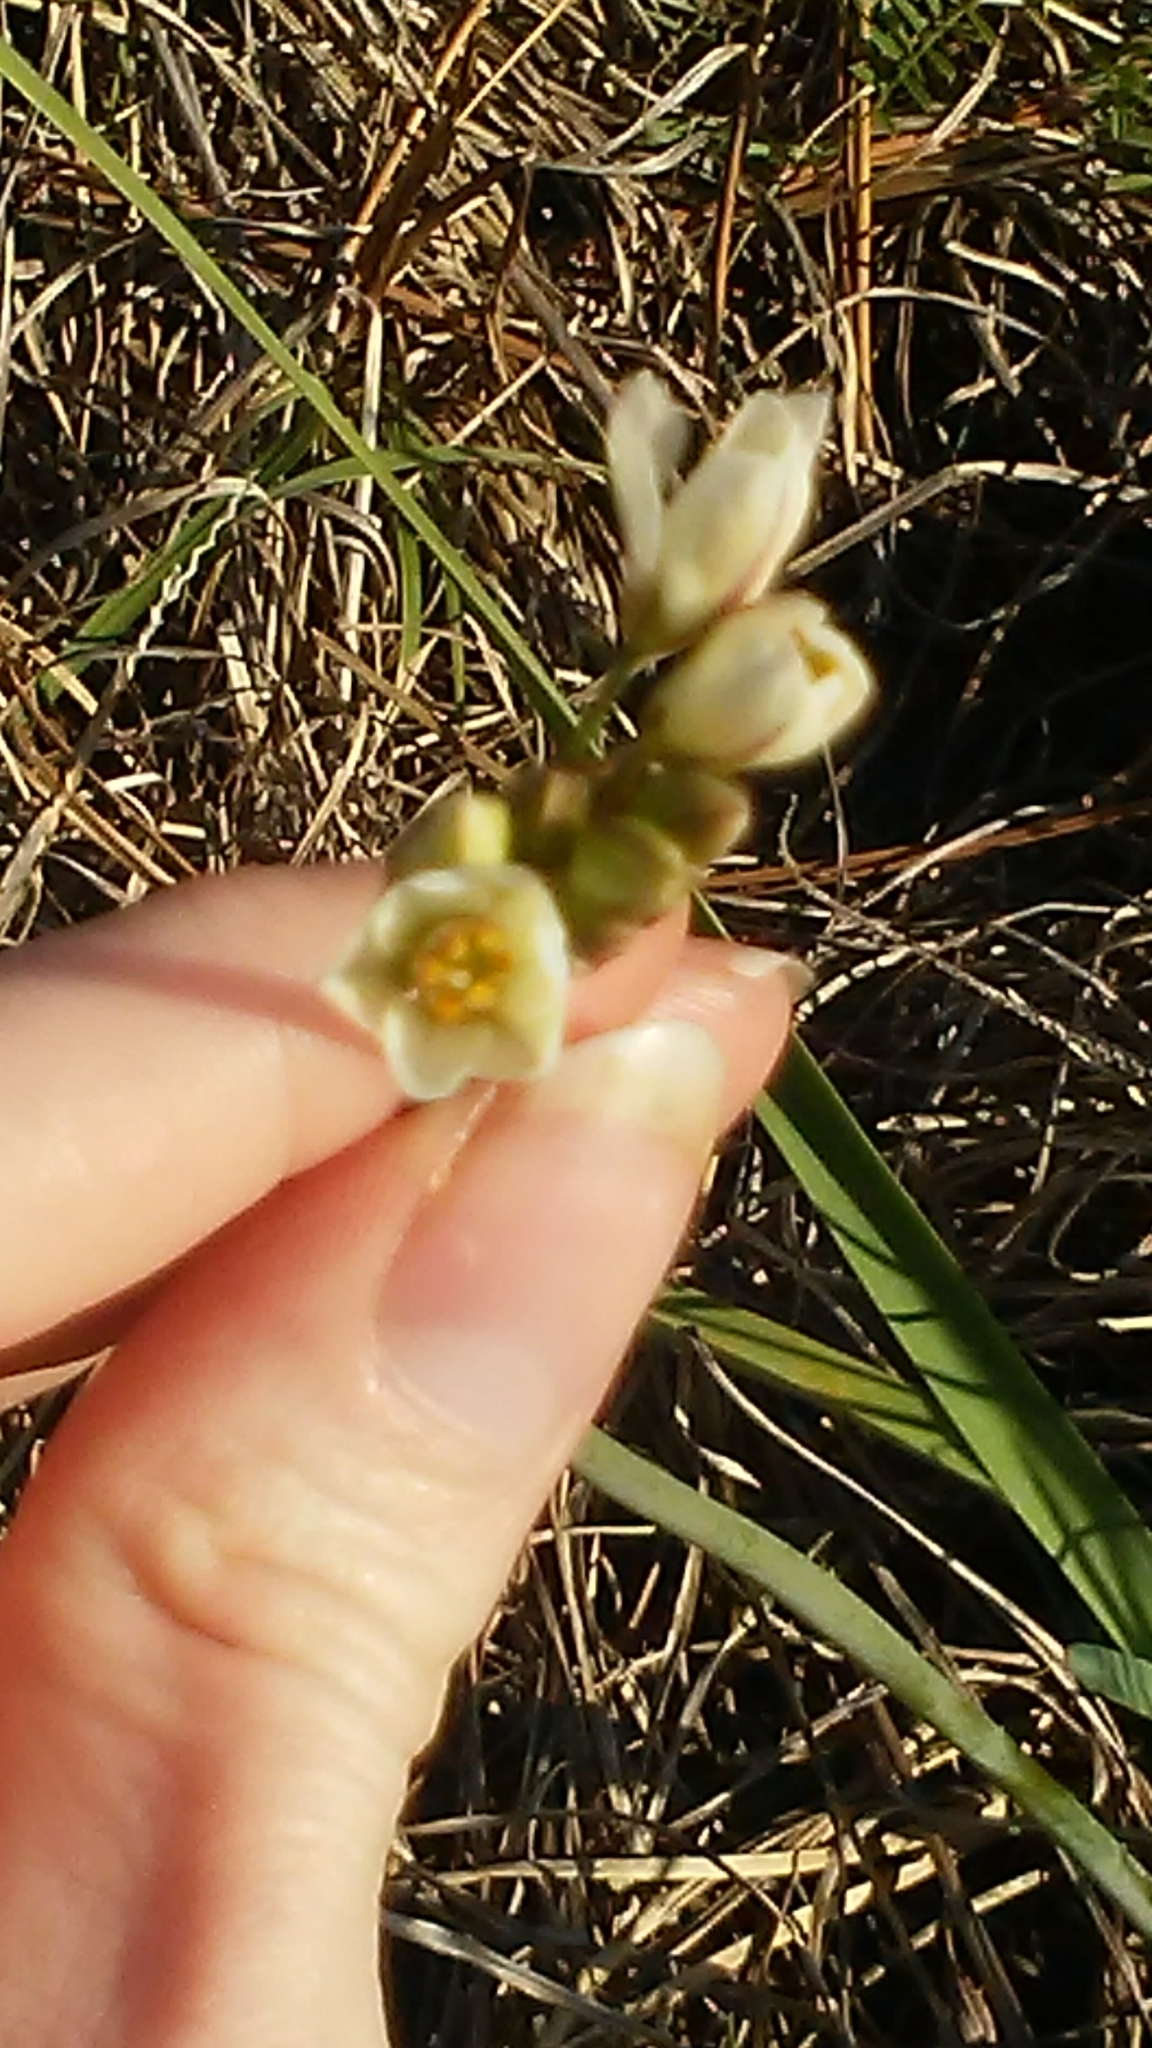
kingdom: Plantae
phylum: Tracheophyta
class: Liliopsida
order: Asparagales
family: Amaryllidaceae
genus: Nothoscordum
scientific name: Nothoscordum bivalve
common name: Crow-poison
